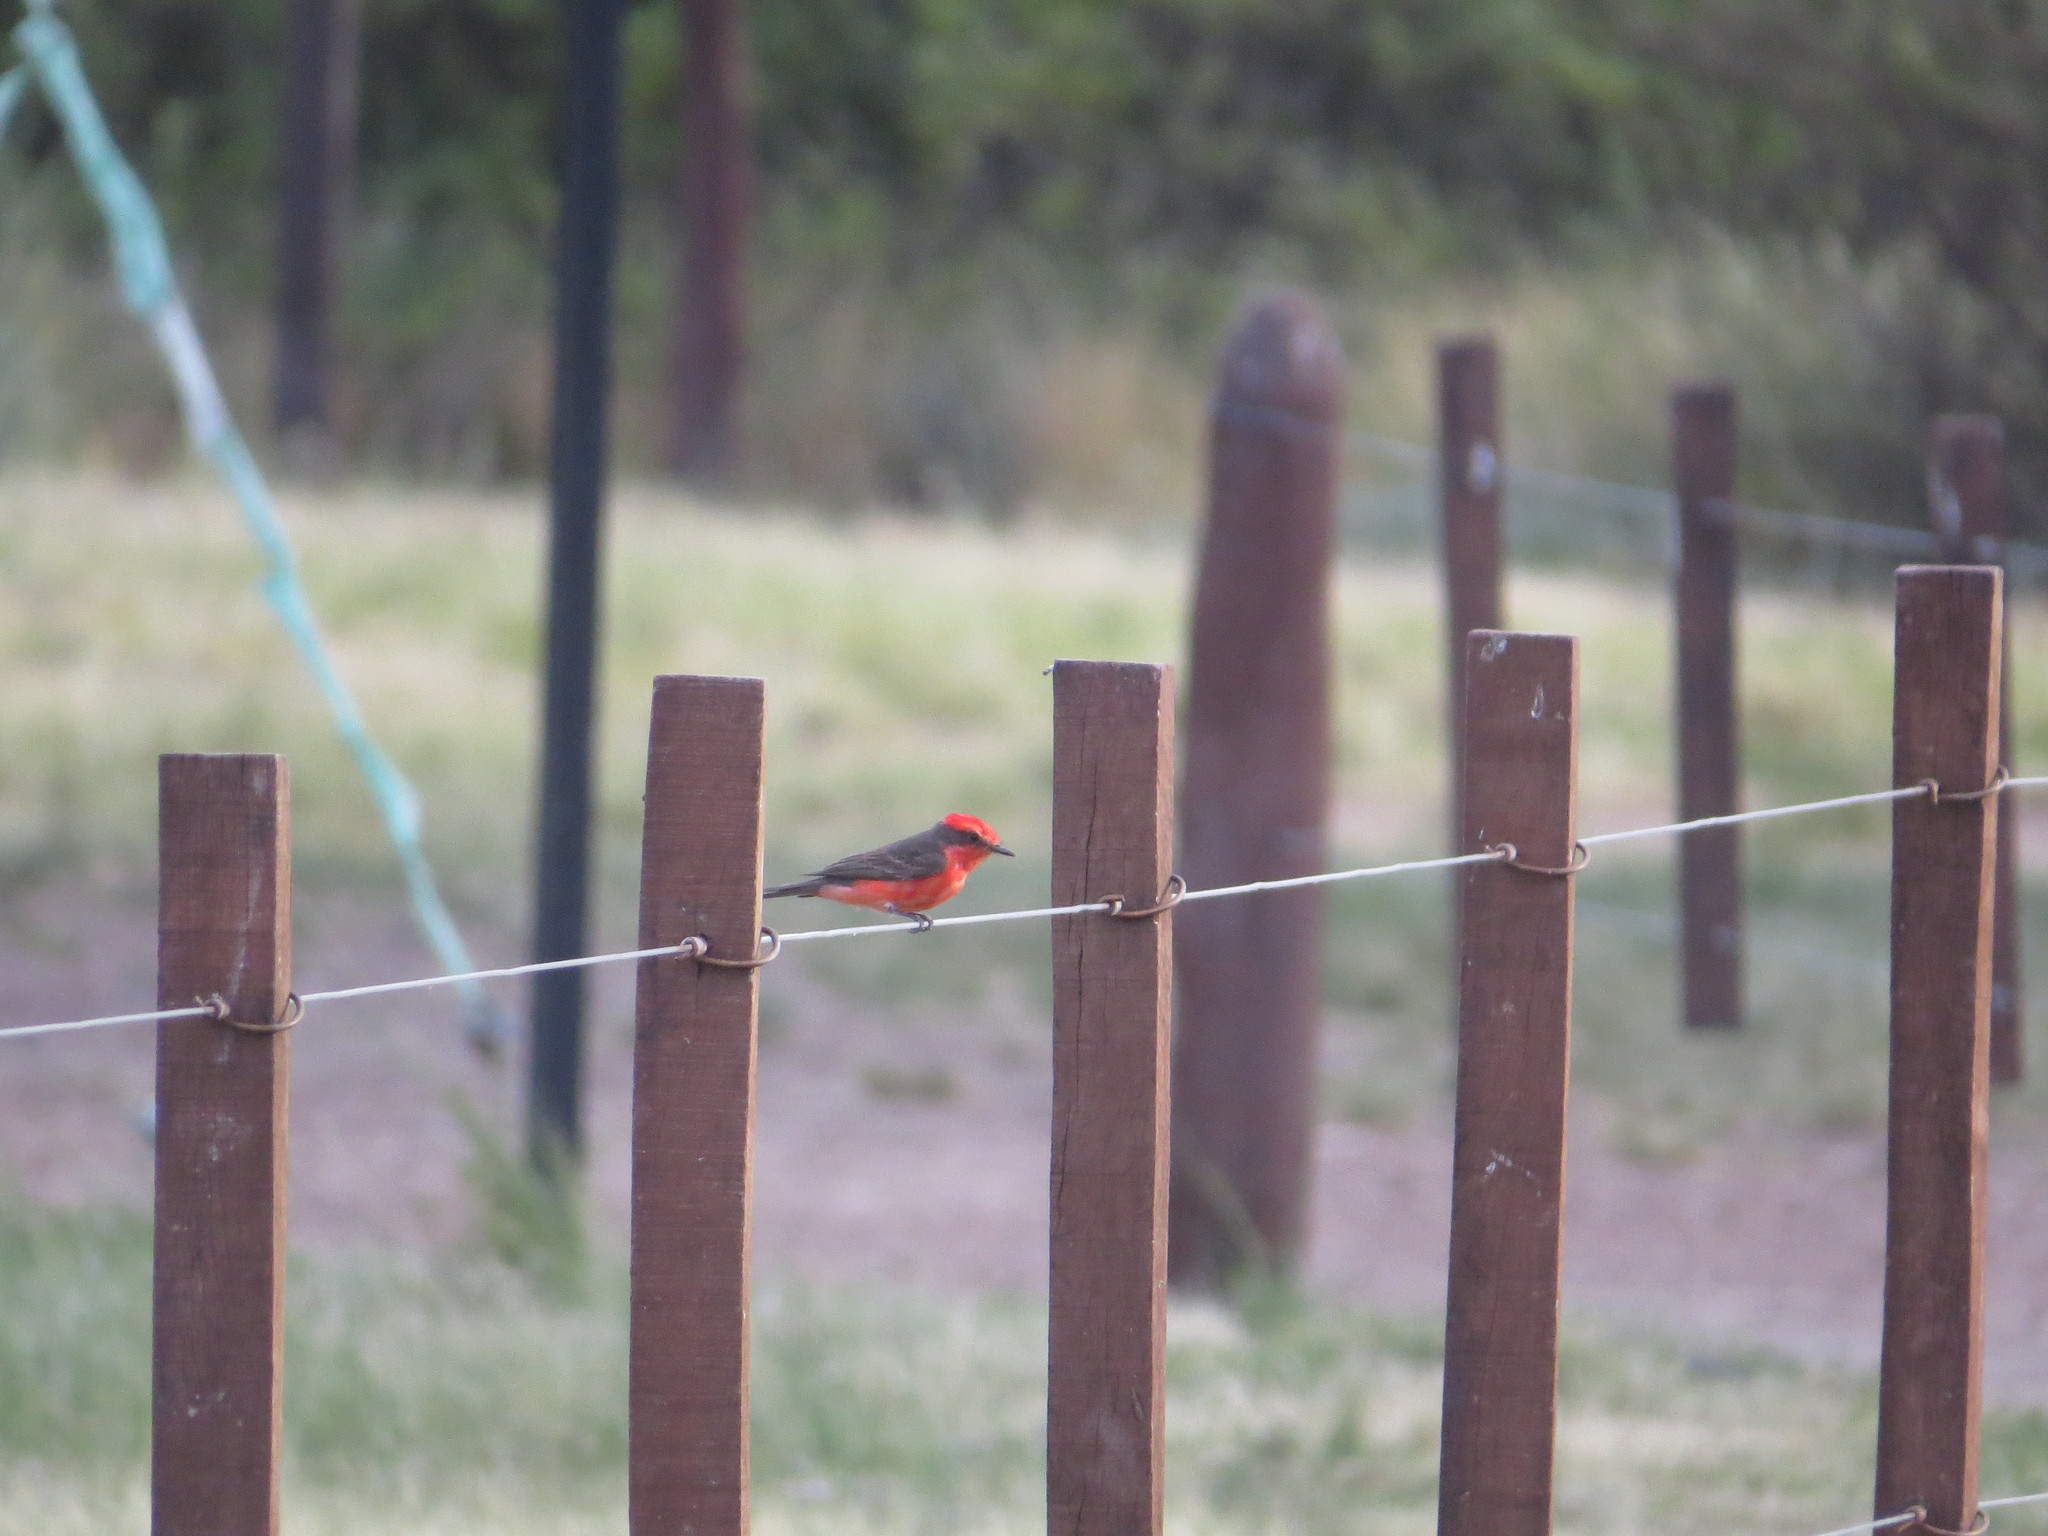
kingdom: Animalia
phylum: Chordata
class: Aves
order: Passeriformes
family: Tyrannidae
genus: Pyrocephalus
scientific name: Pyrocephalus rubinus
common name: Vermilion flycatcher
